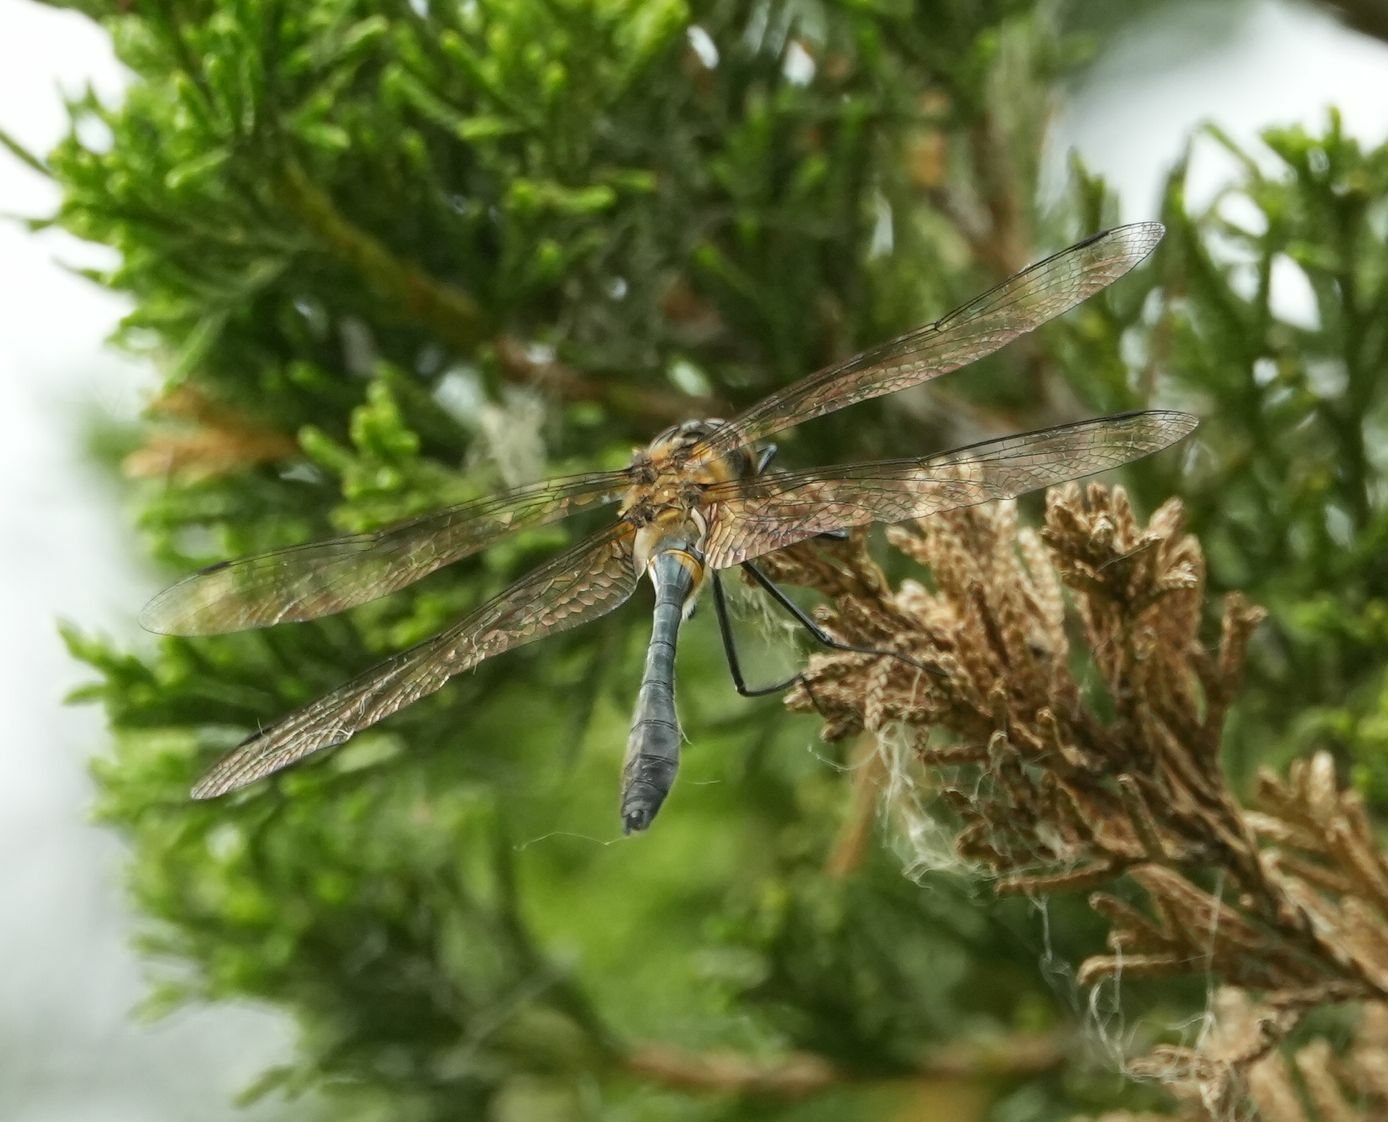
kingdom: Animalia
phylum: Arthropoda
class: Insecta
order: Odonata
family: Corduliidae
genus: Dorocordulia
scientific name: Dorocordulia libera
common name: Racket-tailed emerald
